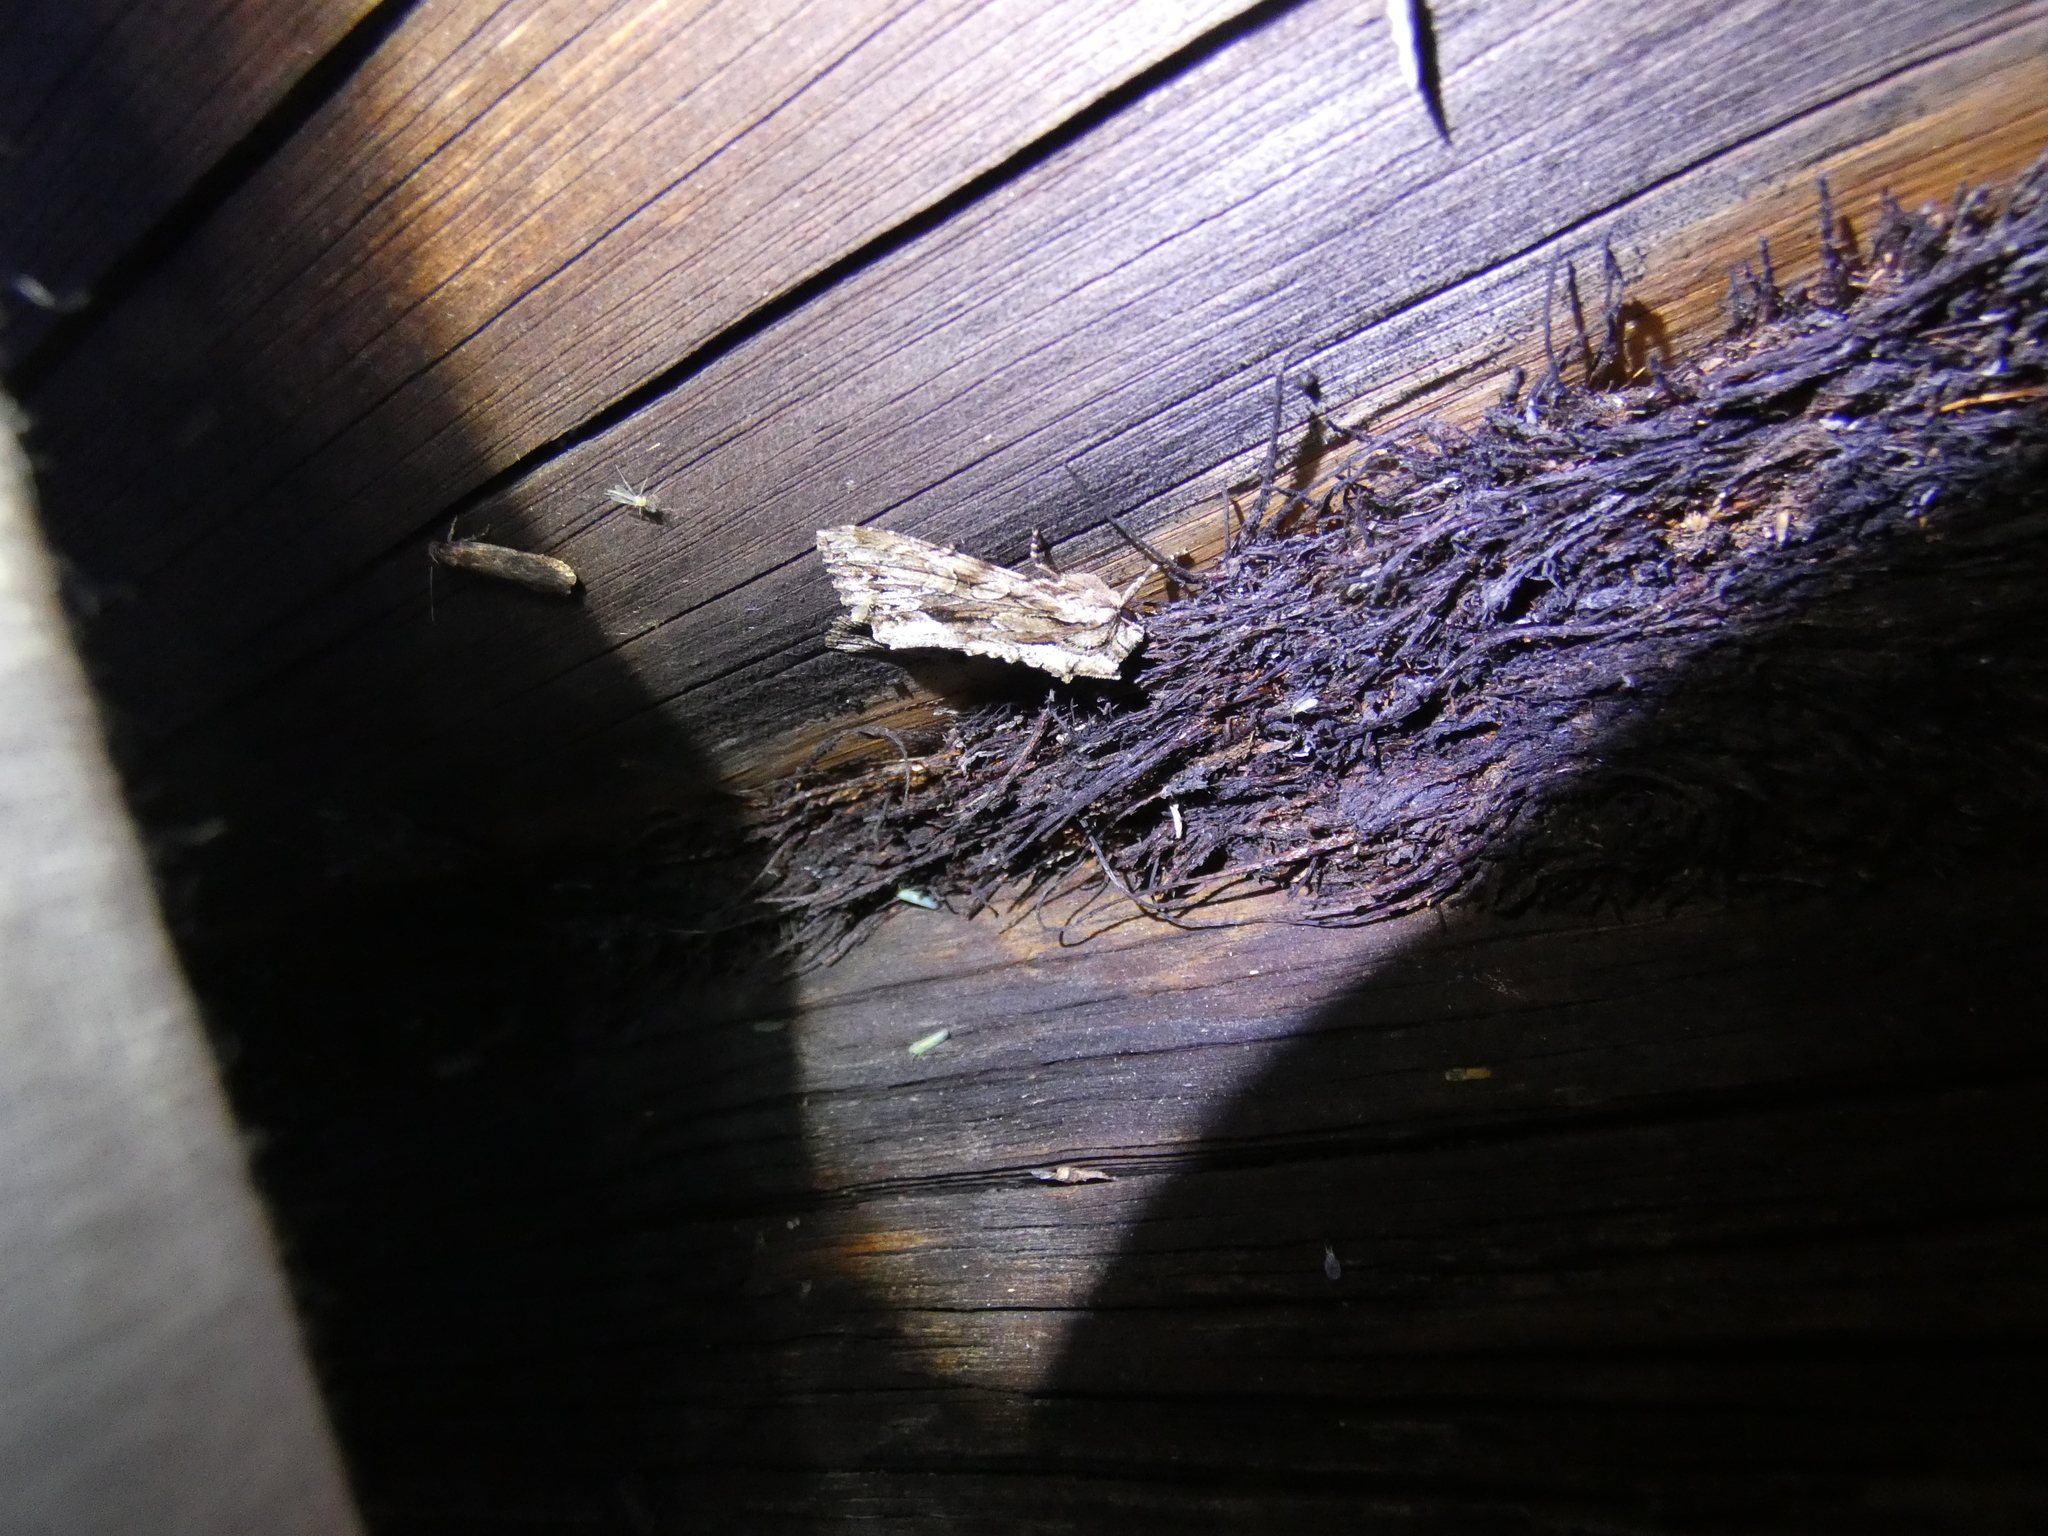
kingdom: Animalia
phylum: Arthropoda
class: Insecta
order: Lepidoptera
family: Noctuidae
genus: Apamea
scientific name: Apamea monoglypha
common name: Dark arches
